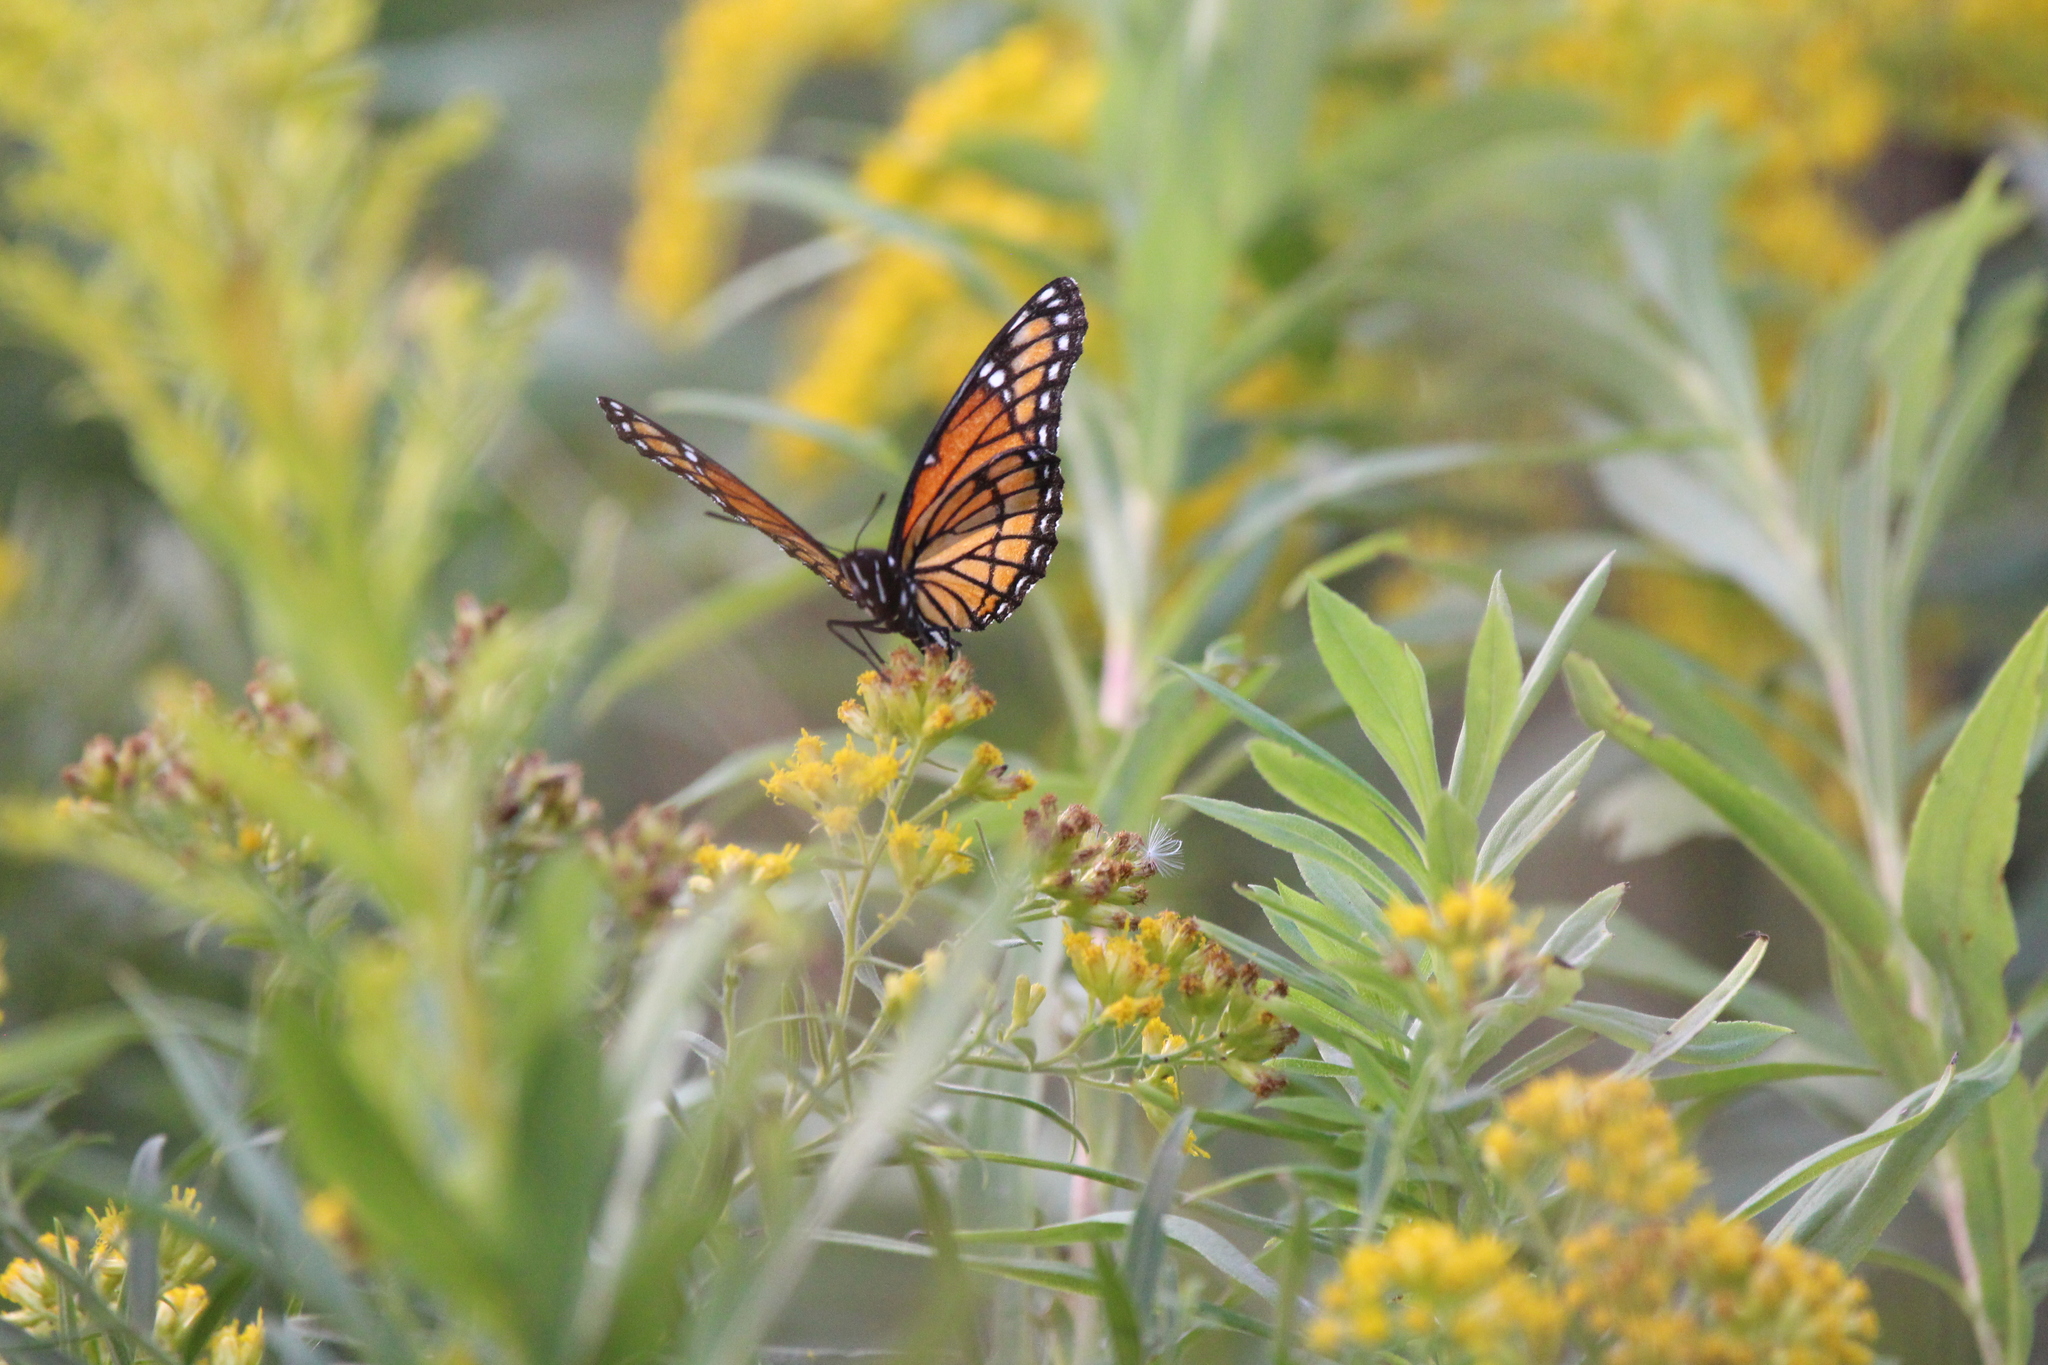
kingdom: Animalia
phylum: Arthropoda
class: Insecta
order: Lepidoptera
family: Nymphalidae
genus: Limenitis
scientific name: Limenitis archippus
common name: Viceroy
